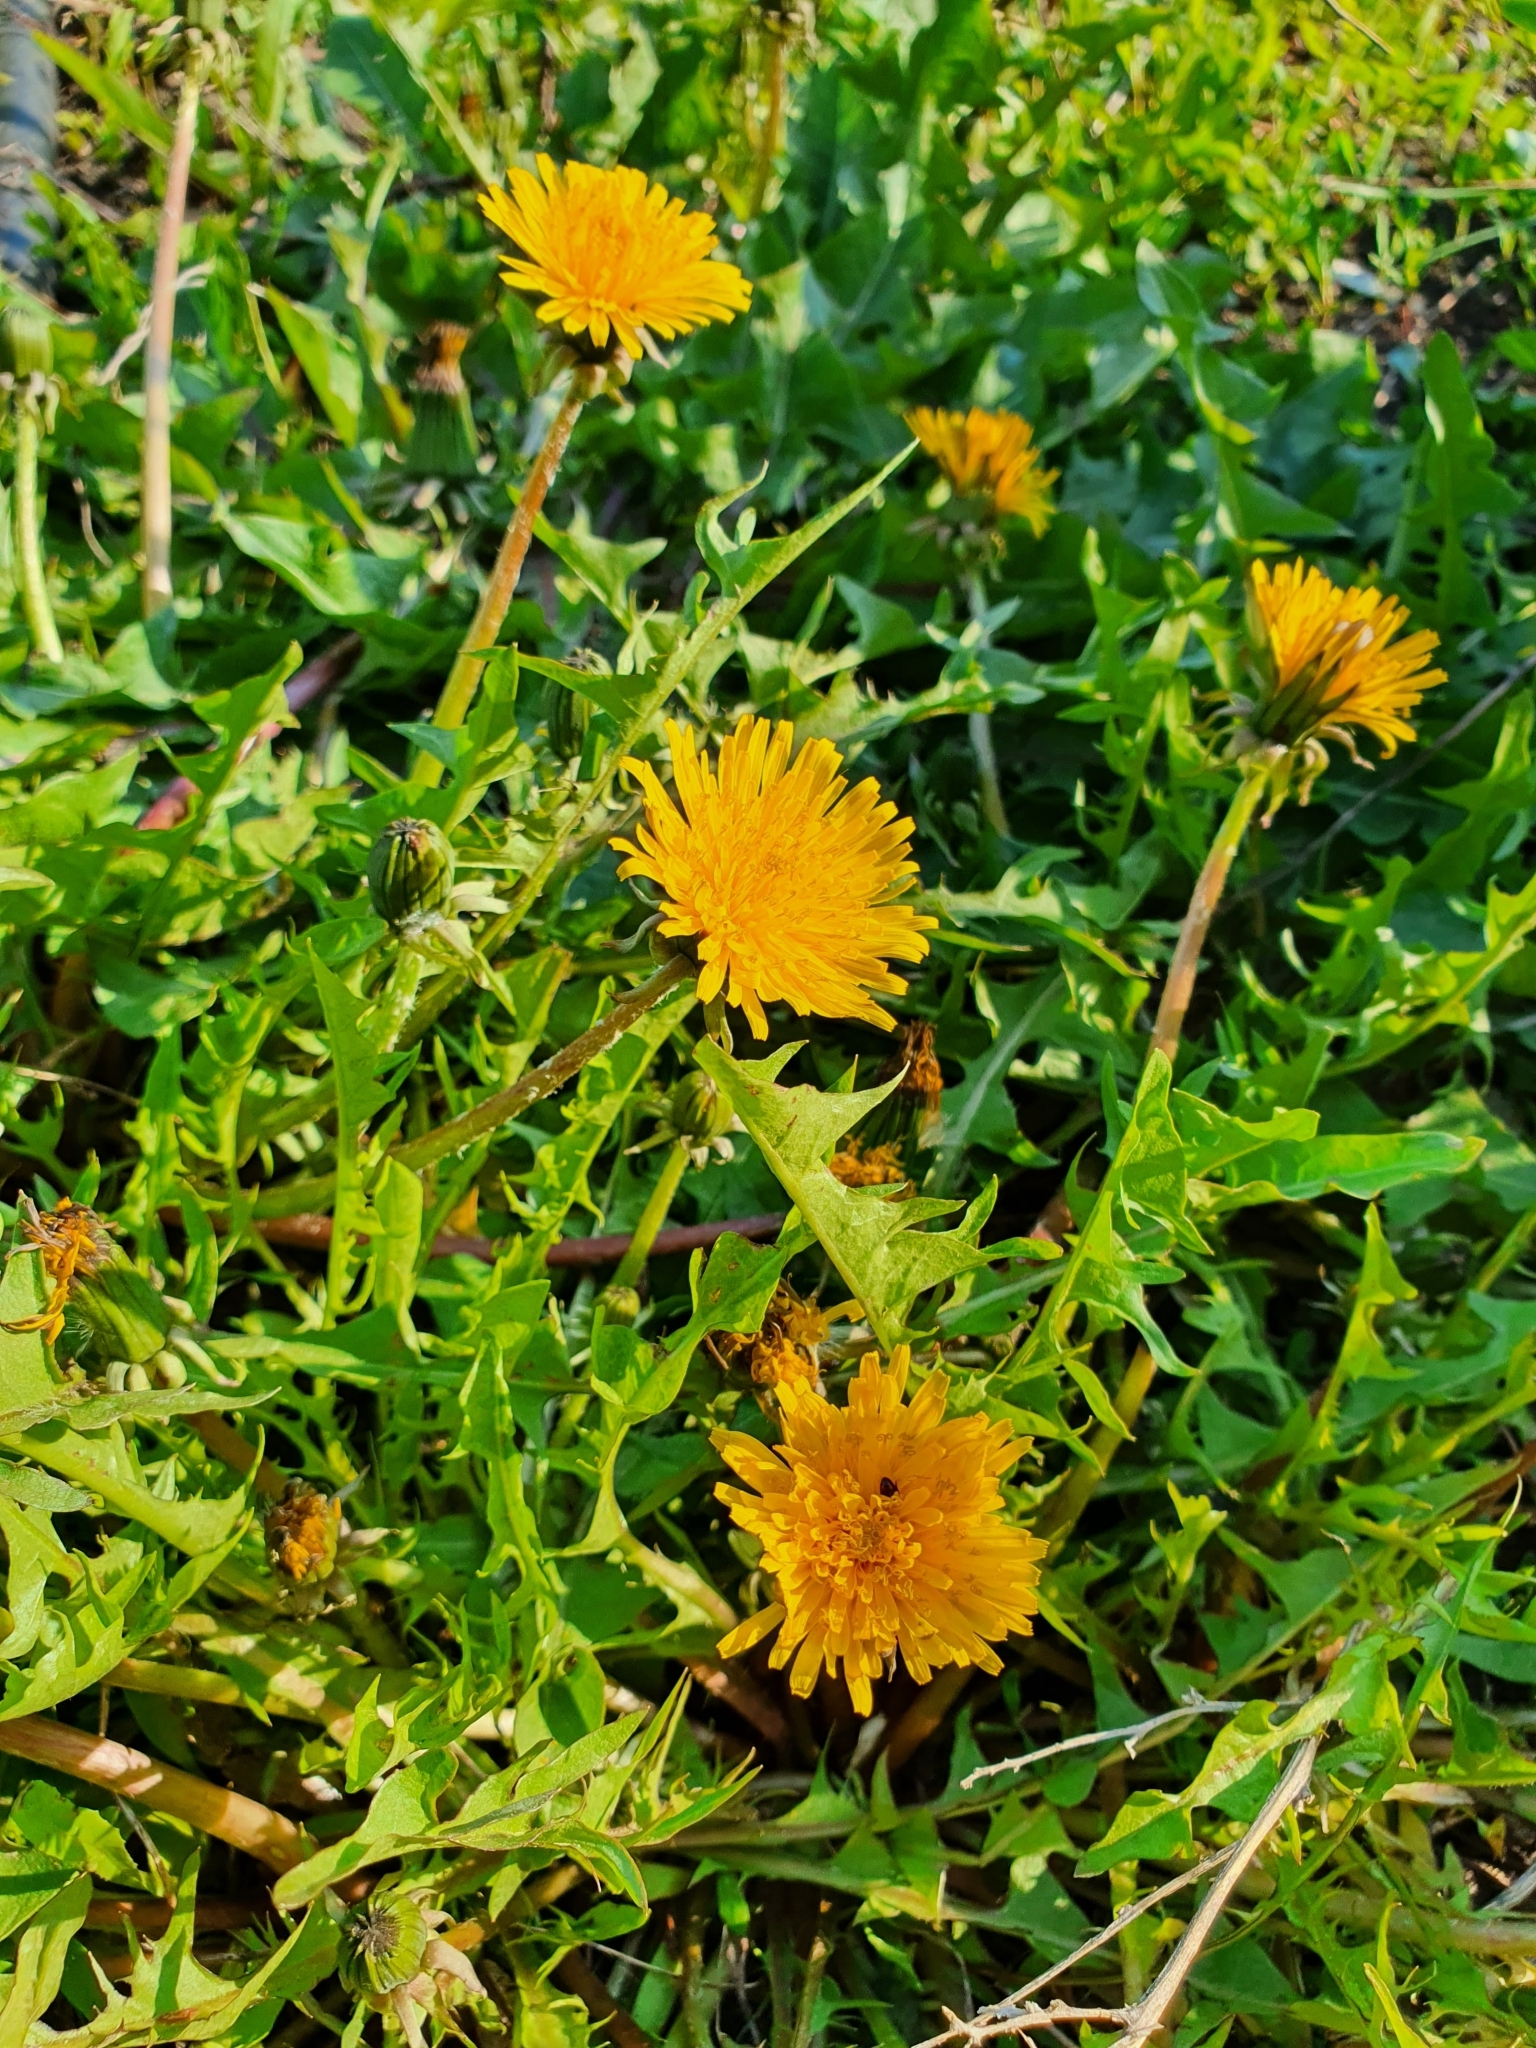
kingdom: Plantae
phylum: Tracheophyta
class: Magnoliopsida
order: Asterales
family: Asteraceae
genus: Taraxacum
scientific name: Taraxacum officinale
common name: Common dandelion
